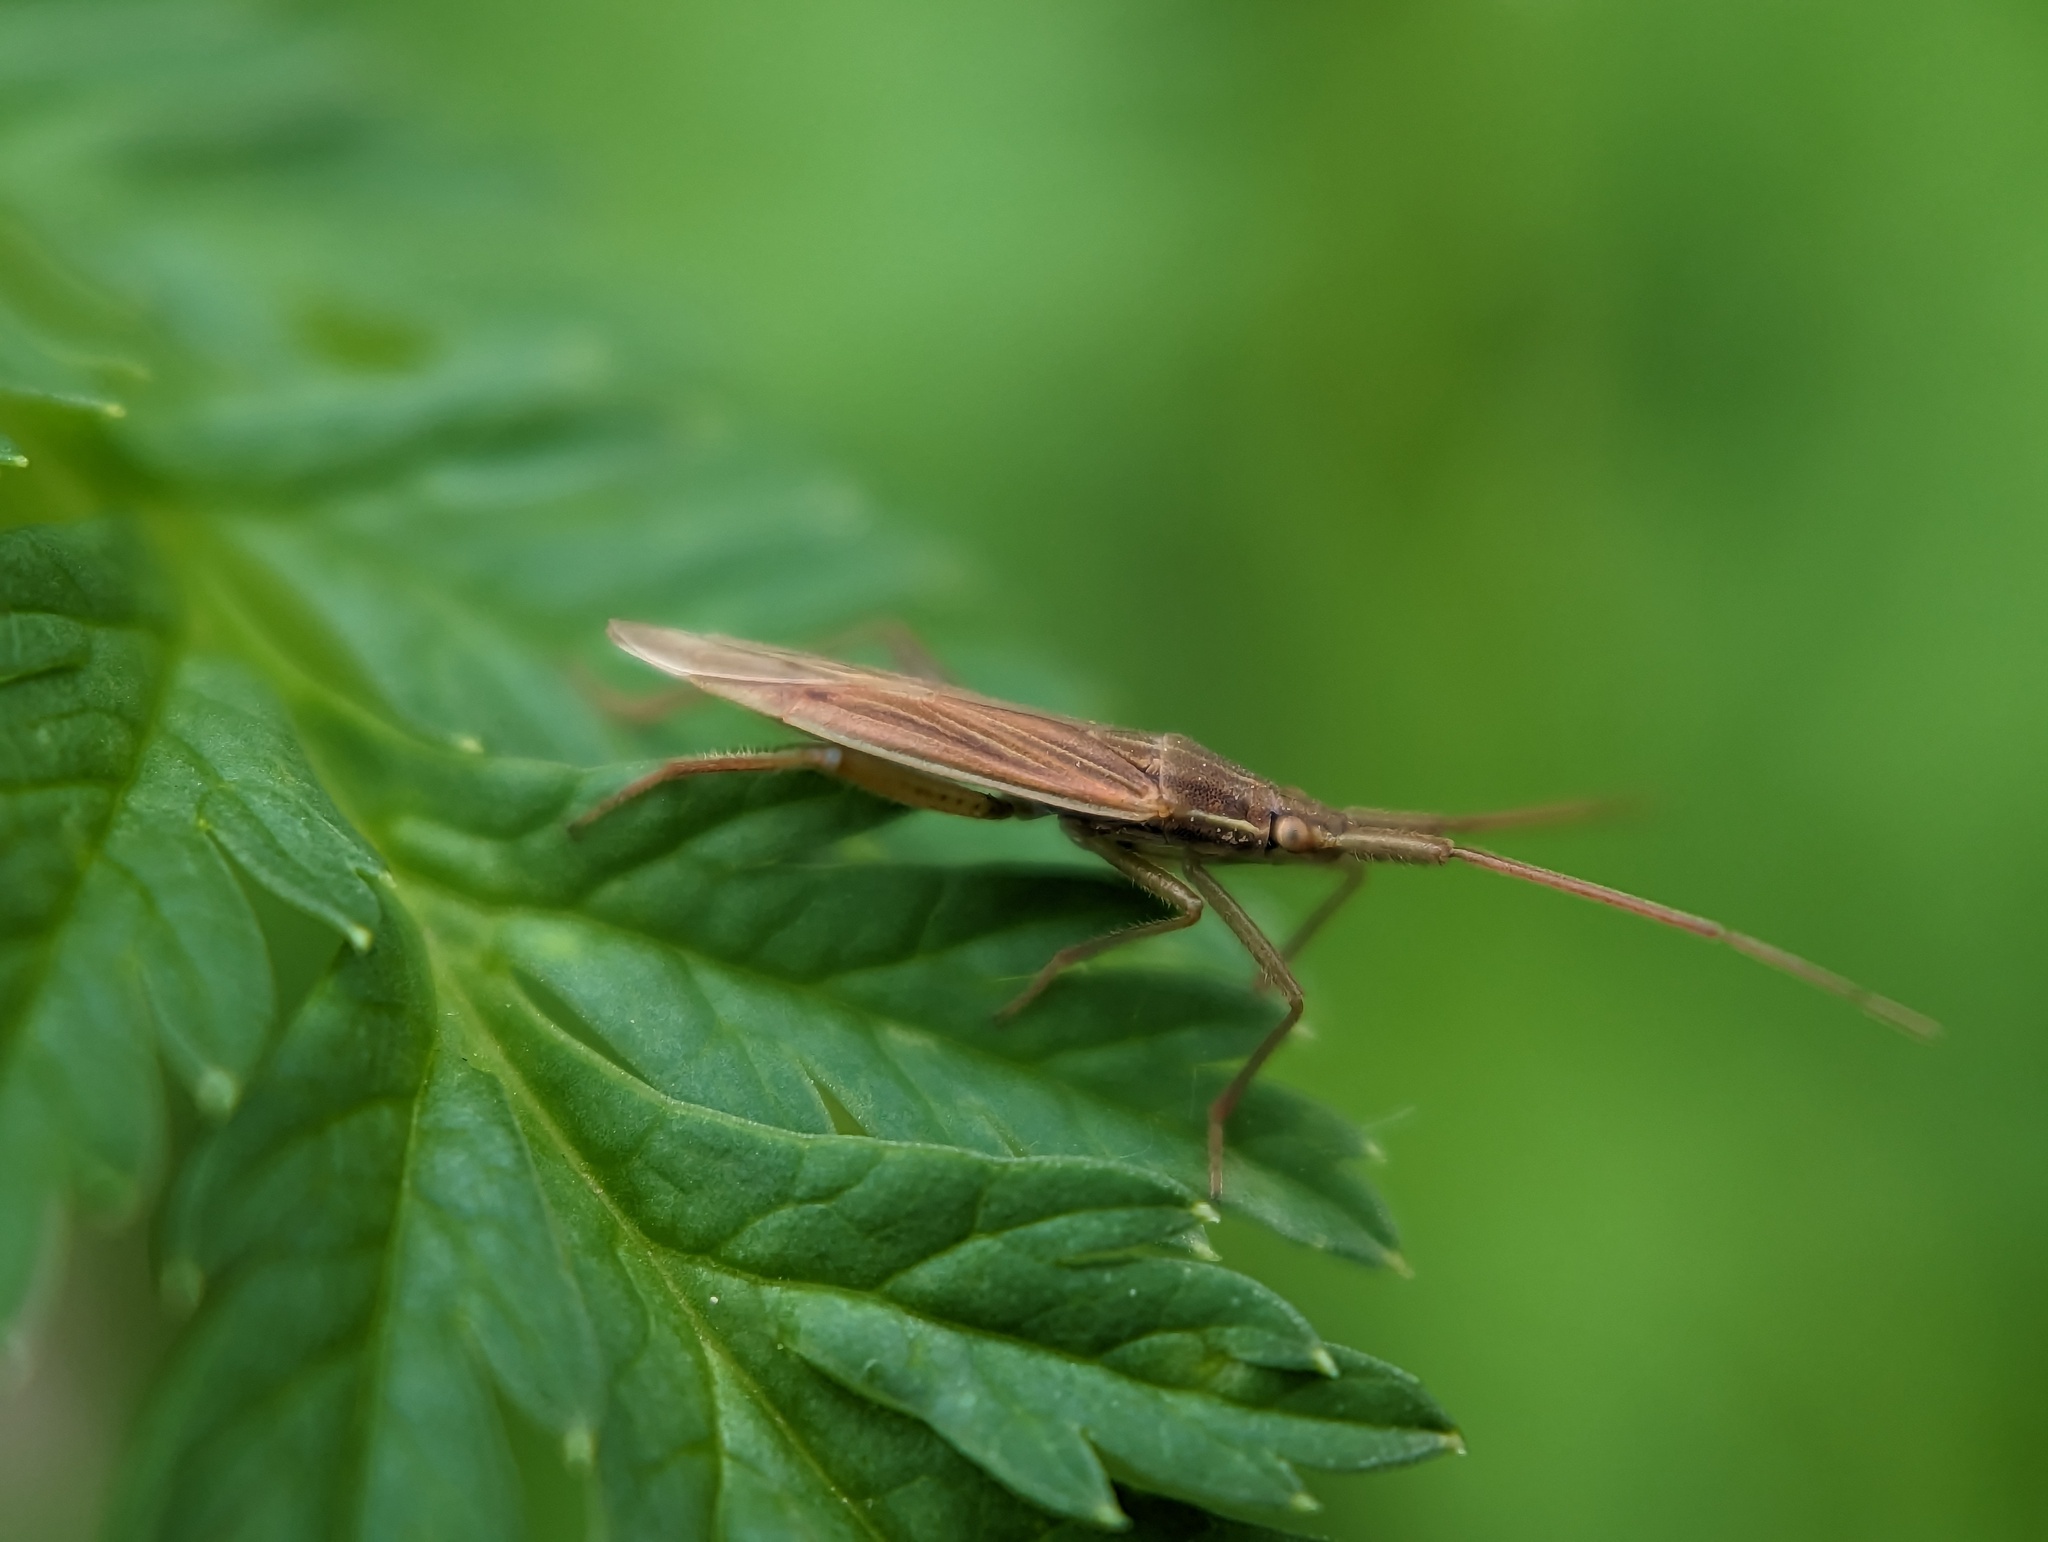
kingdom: Animalia
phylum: Arthropoda
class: Insecta
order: Hemiptera
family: Miridae
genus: Stenodema
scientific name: Stenodema calcarata
